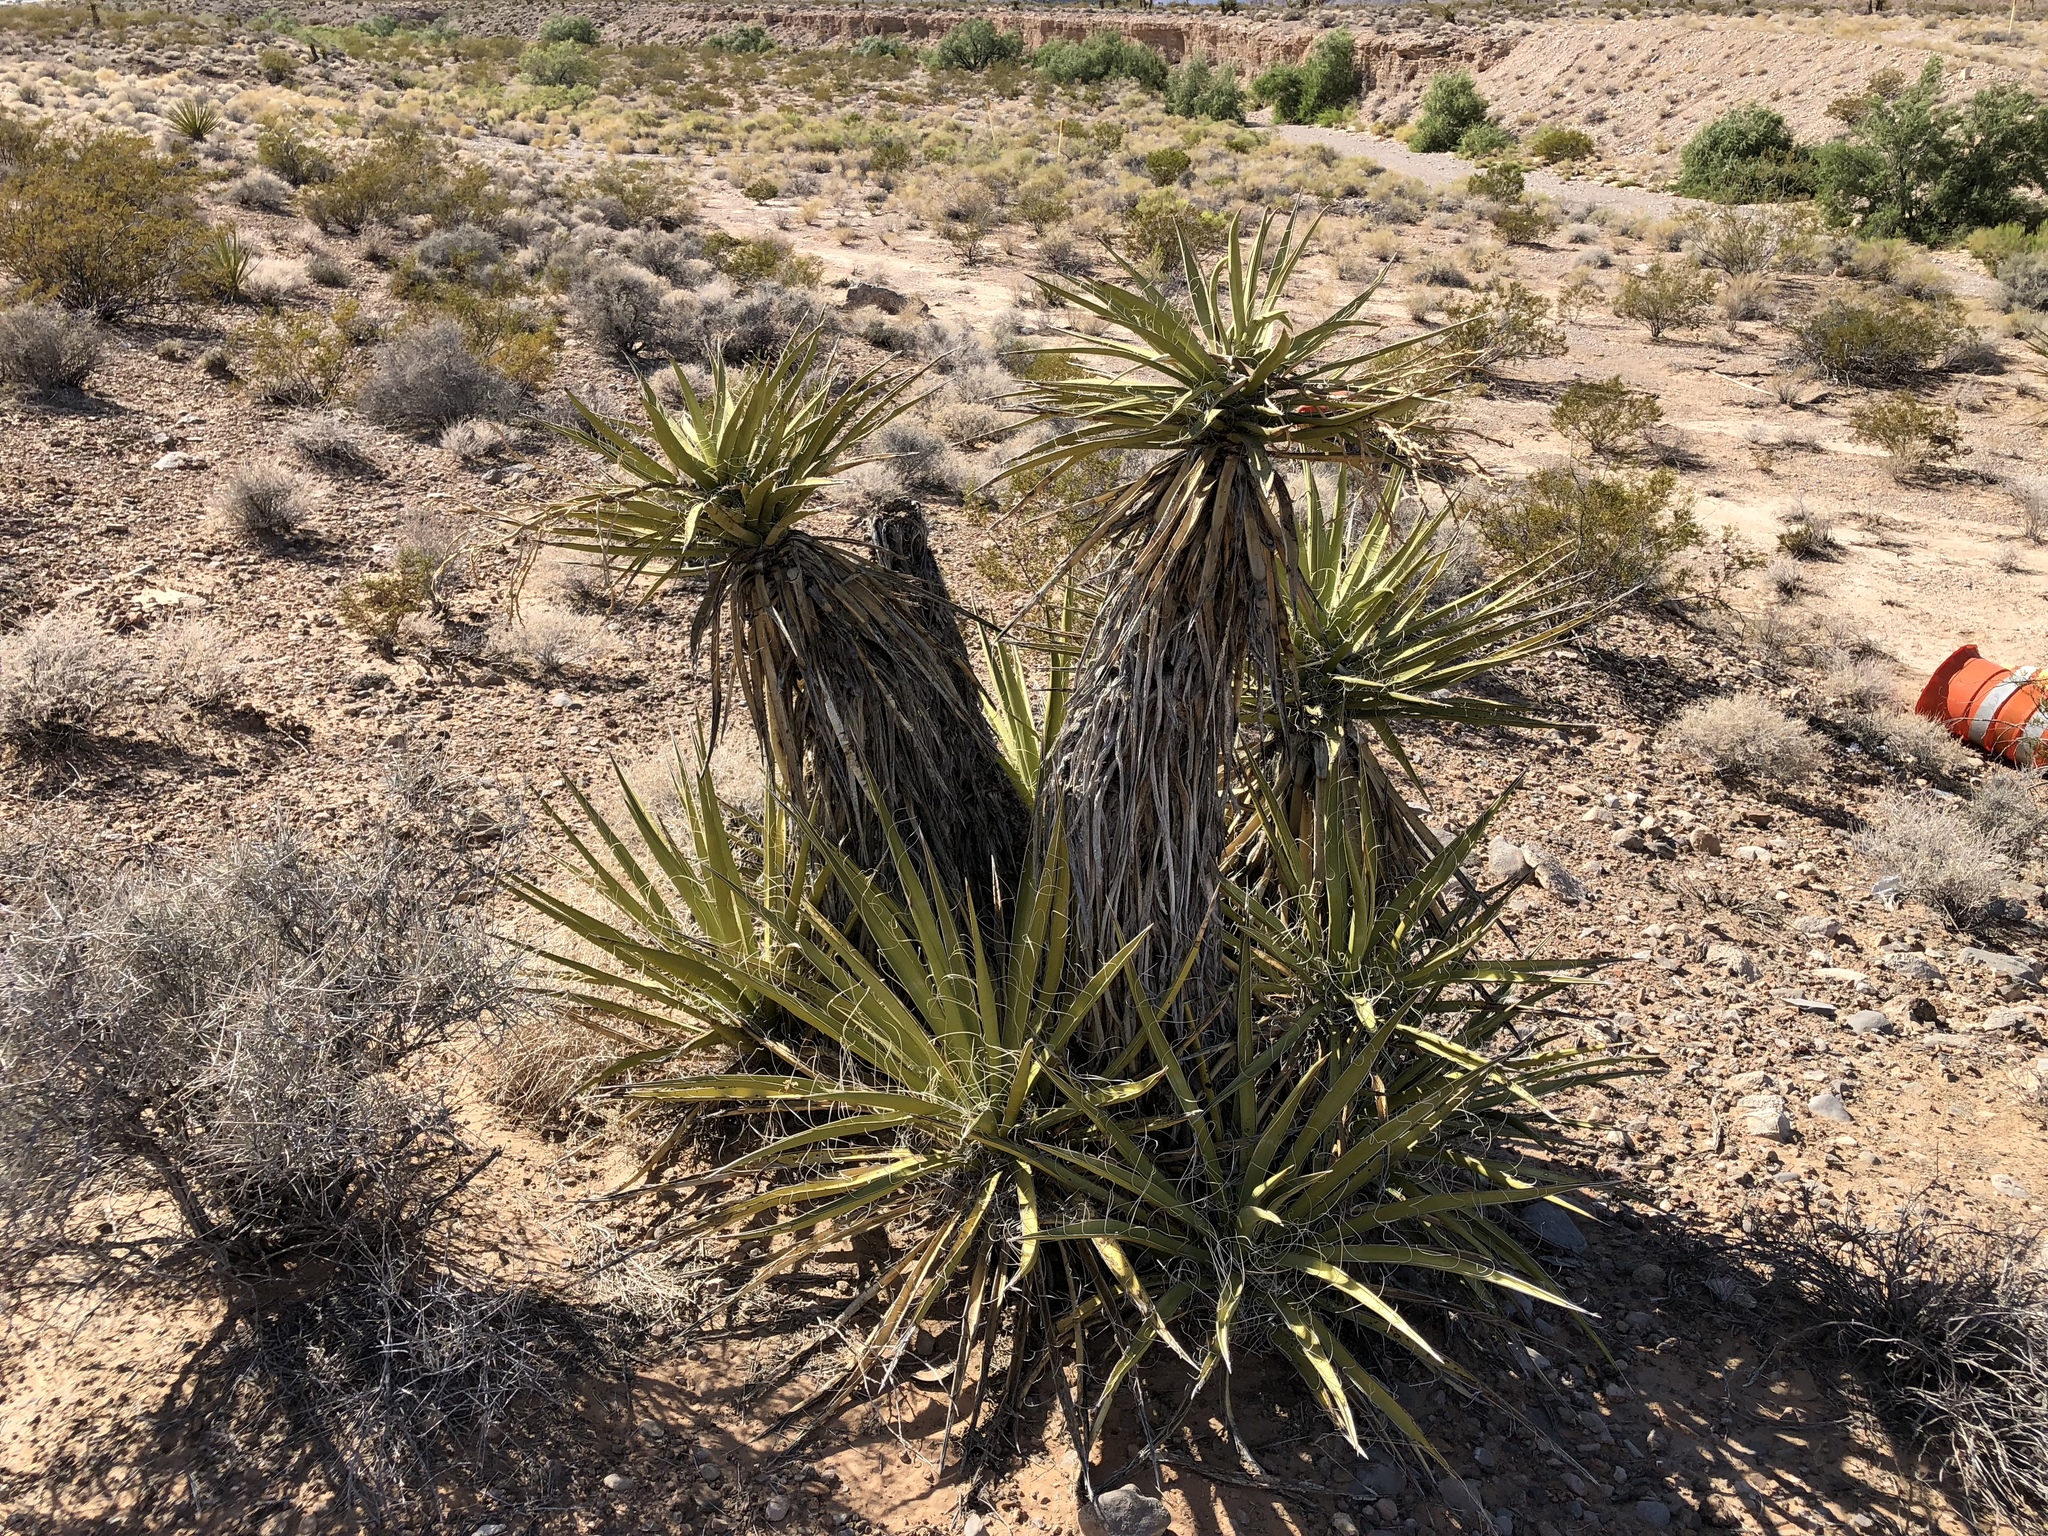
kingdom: Plantae
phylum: Tracheophyta
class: Liliopsida
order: Asparagales
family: Asparagaceae
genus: Yucca
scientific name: Yucca schidigera
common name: Mojave yucca
